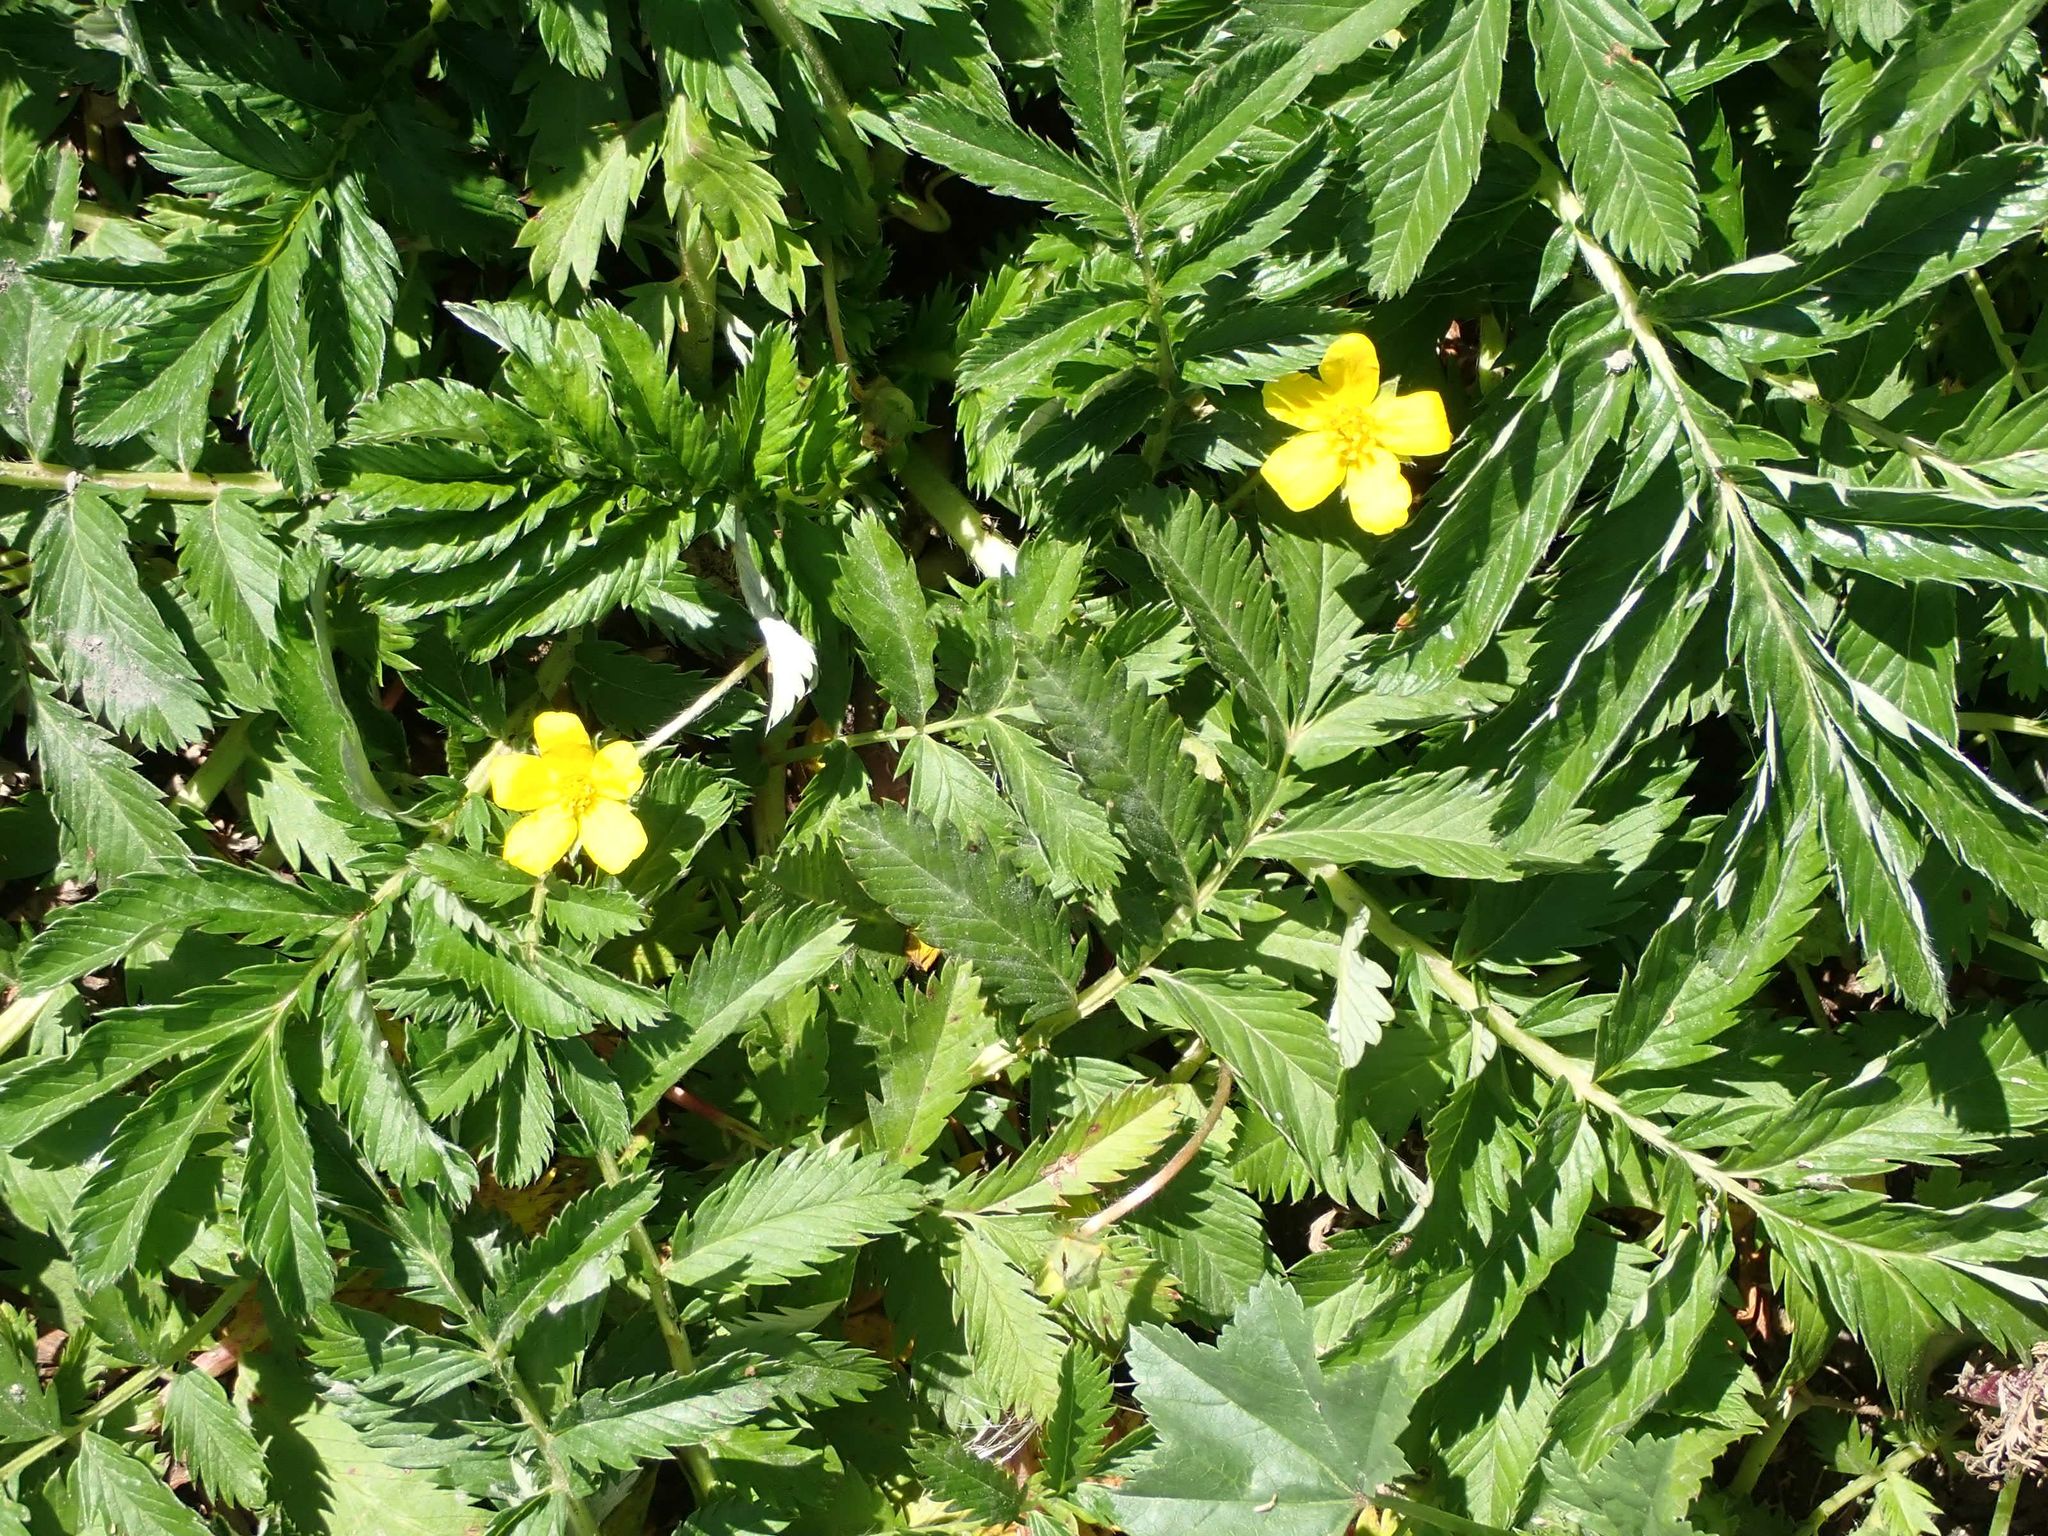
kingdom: Plantae
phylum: Tracheophyta
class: Magnoliopsida
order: Rosales
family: Rosaceae
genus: Argentina
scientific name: Argentina anserina
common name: Common silverweed
